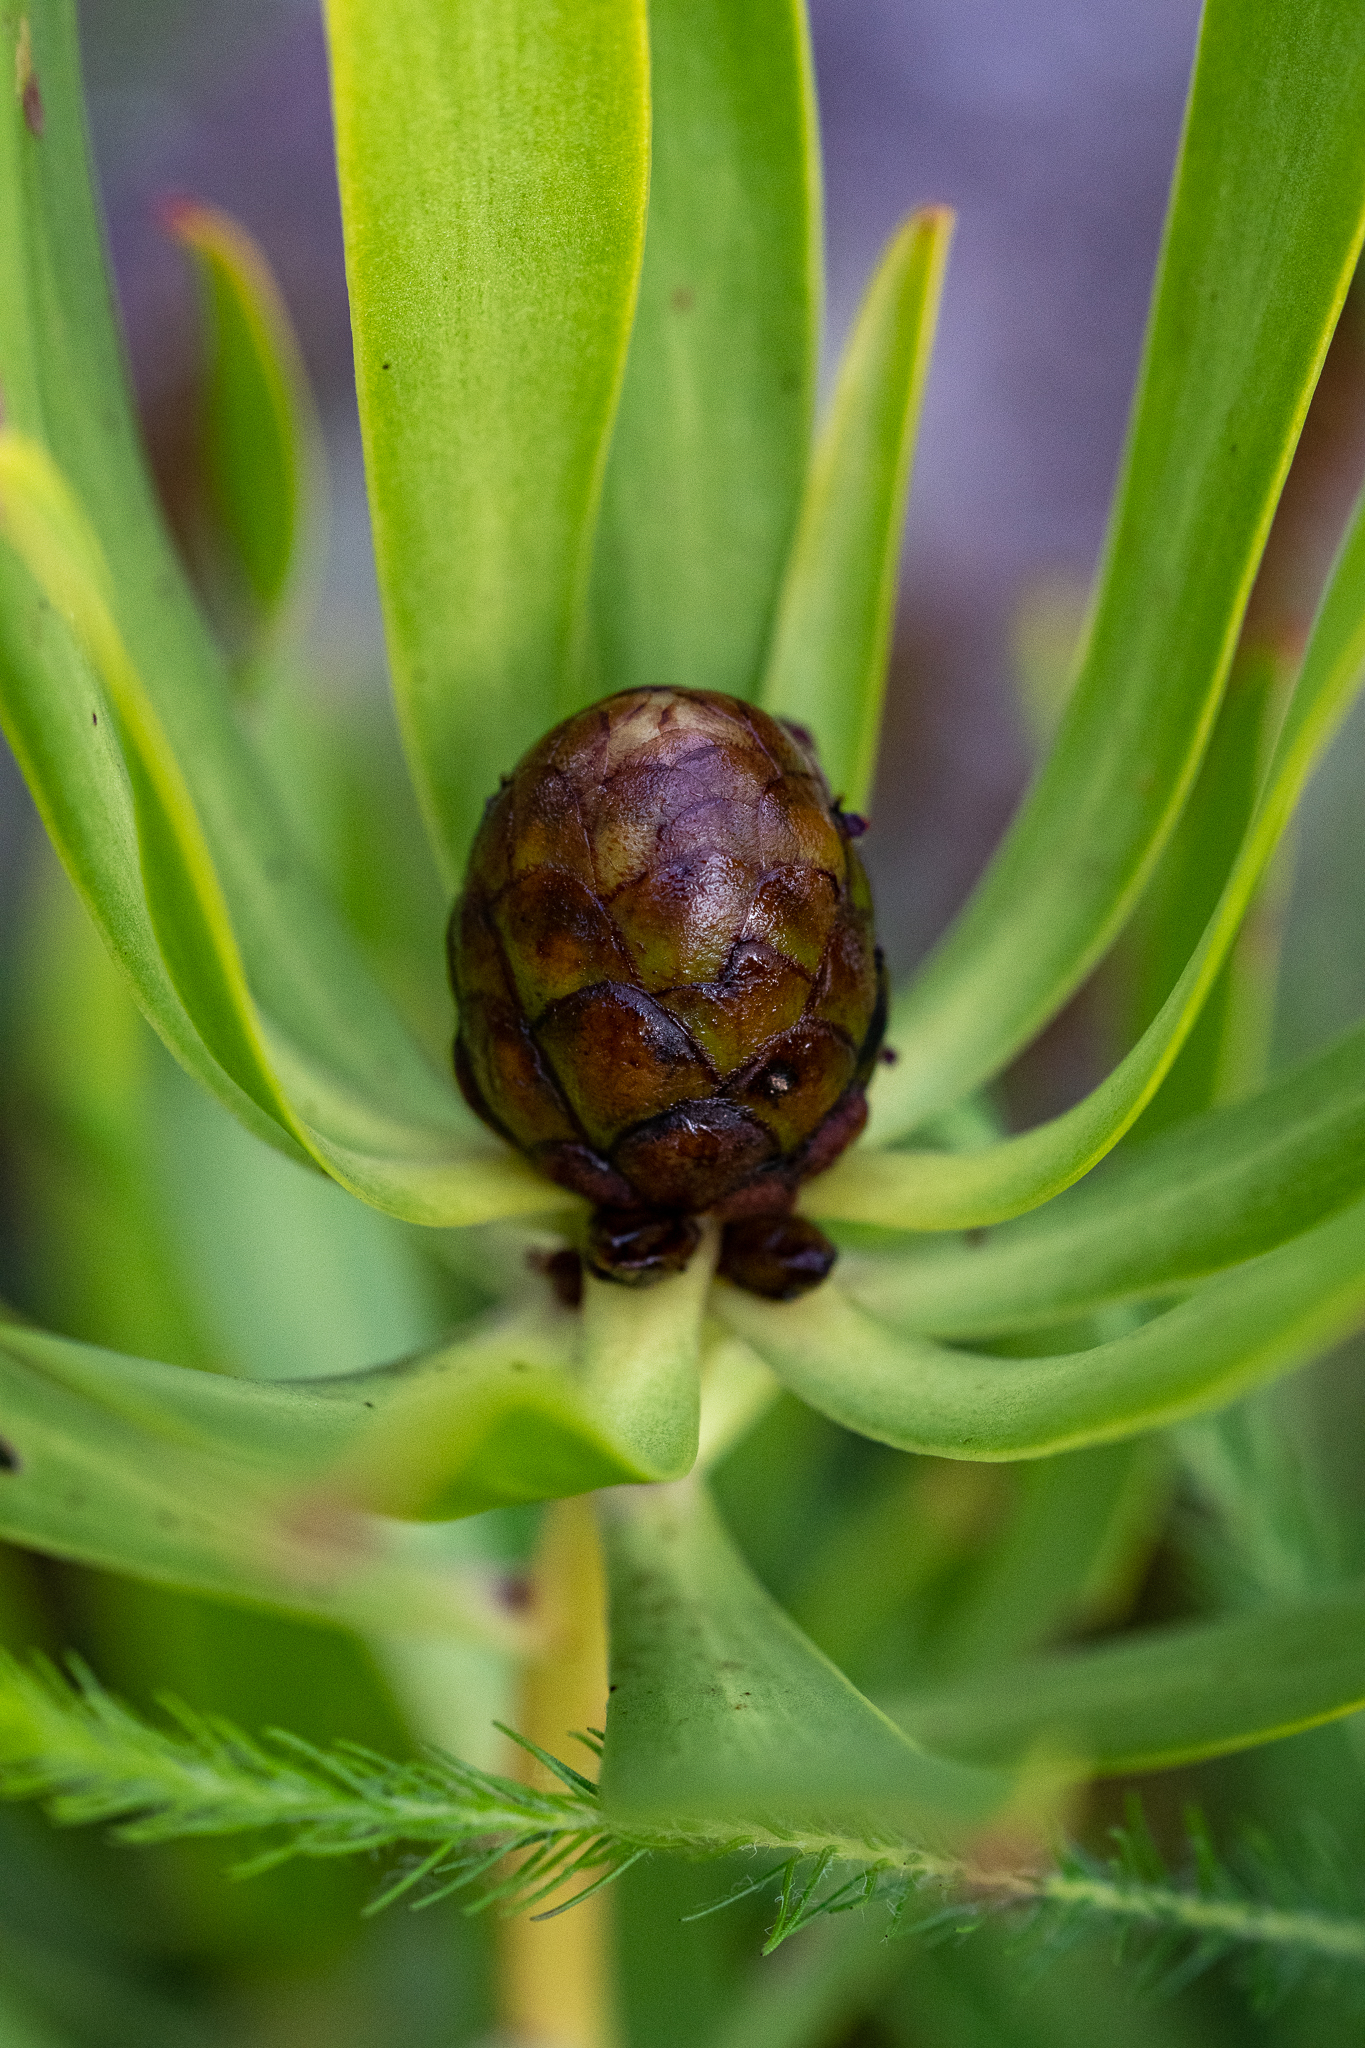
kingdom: Plantae
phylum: Tracheophyta
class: Magnoliopsida
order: Proteales
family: Proteaceae
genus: Leucadendron
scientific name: Leucadendron microcephalum
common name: Oilbract conebush
